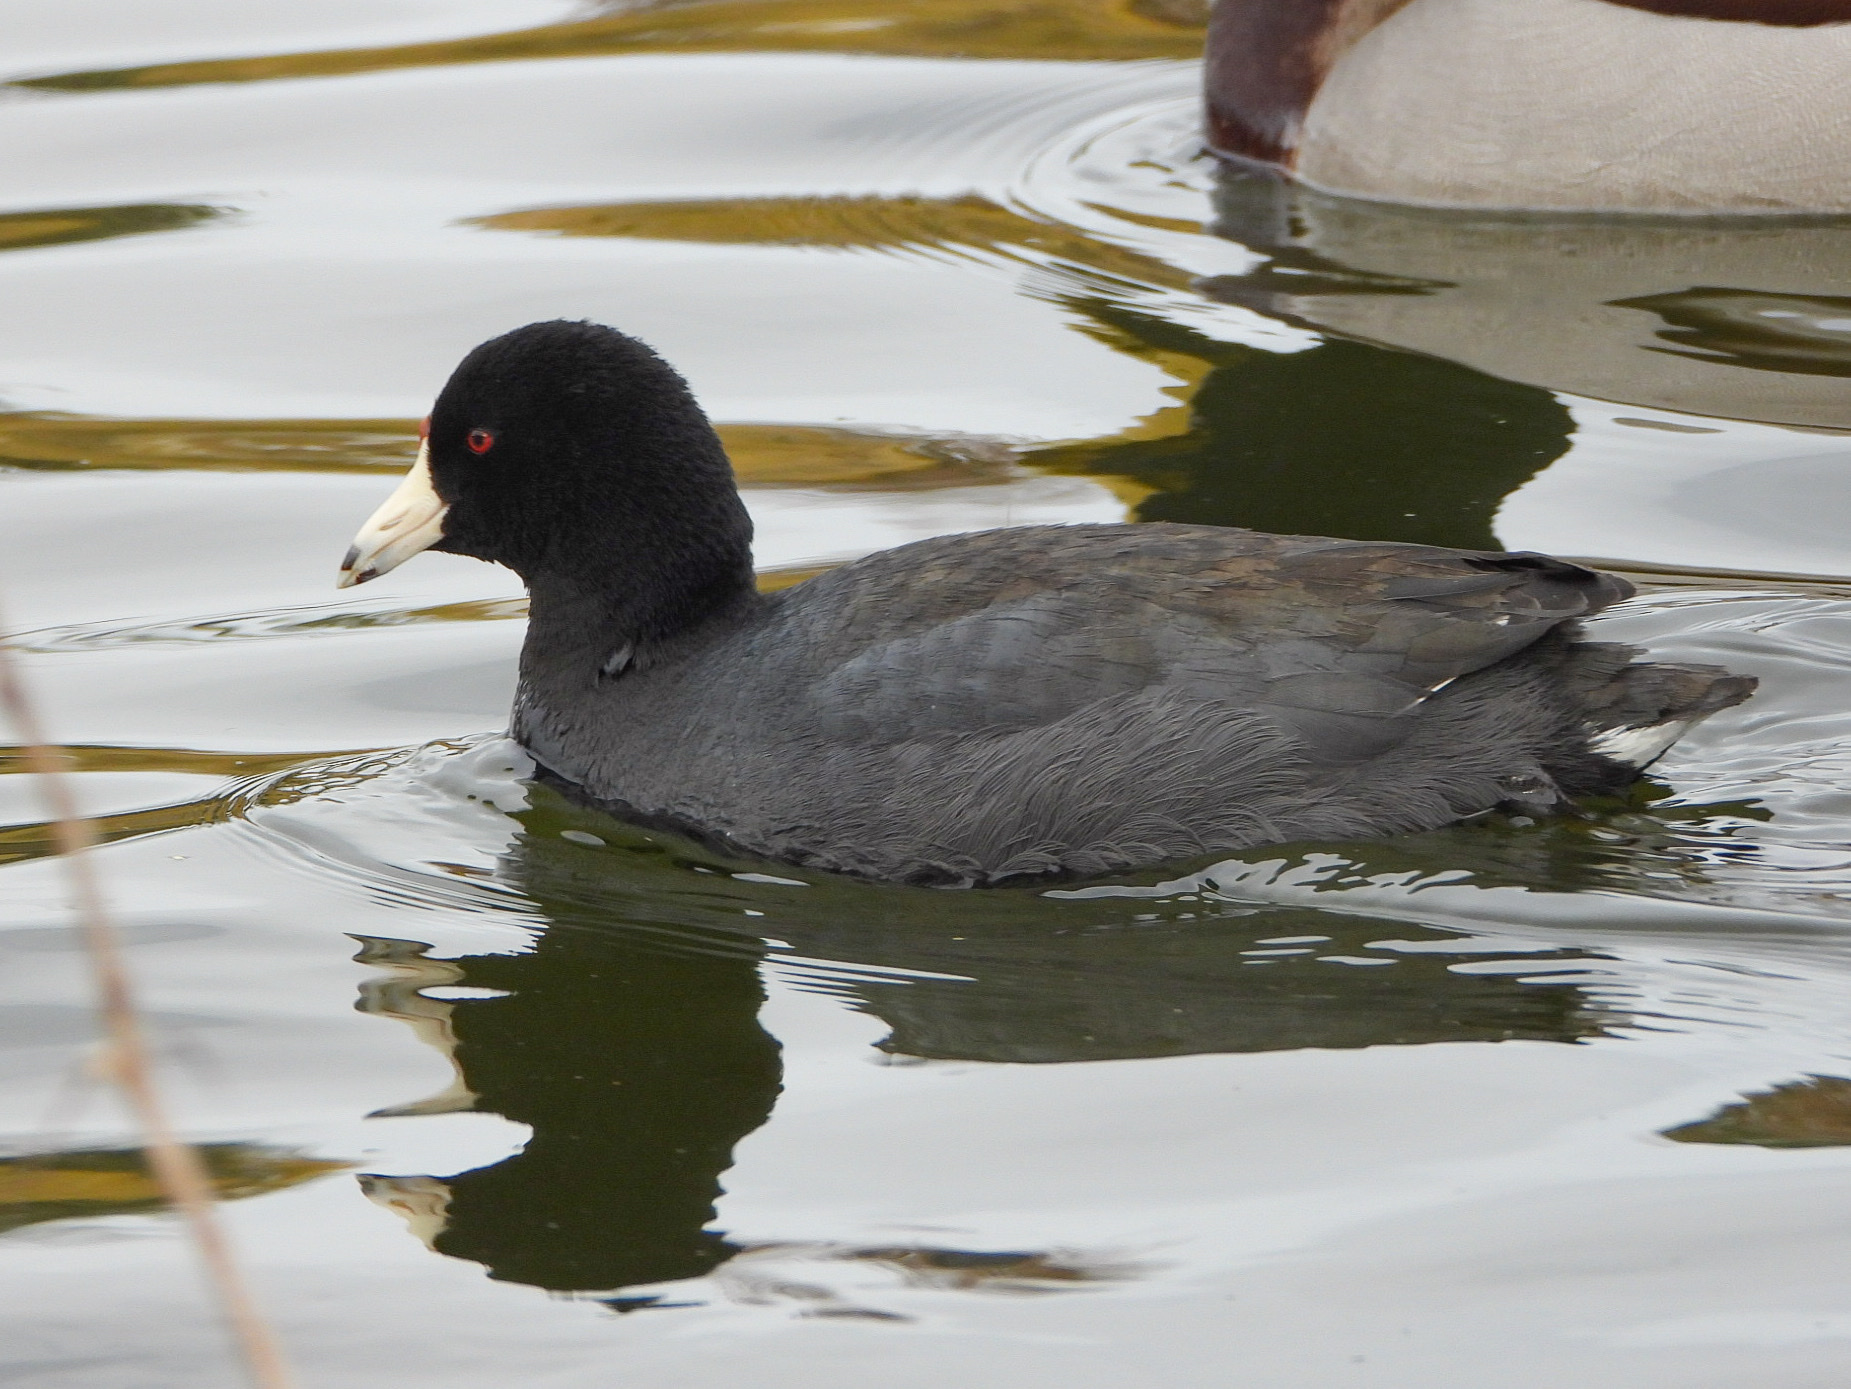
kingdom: Animalia
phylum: Chordata
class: Aves
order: Gruiformes
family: Rallidae
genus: Fulica
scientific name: Fulica americana
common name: American coot
